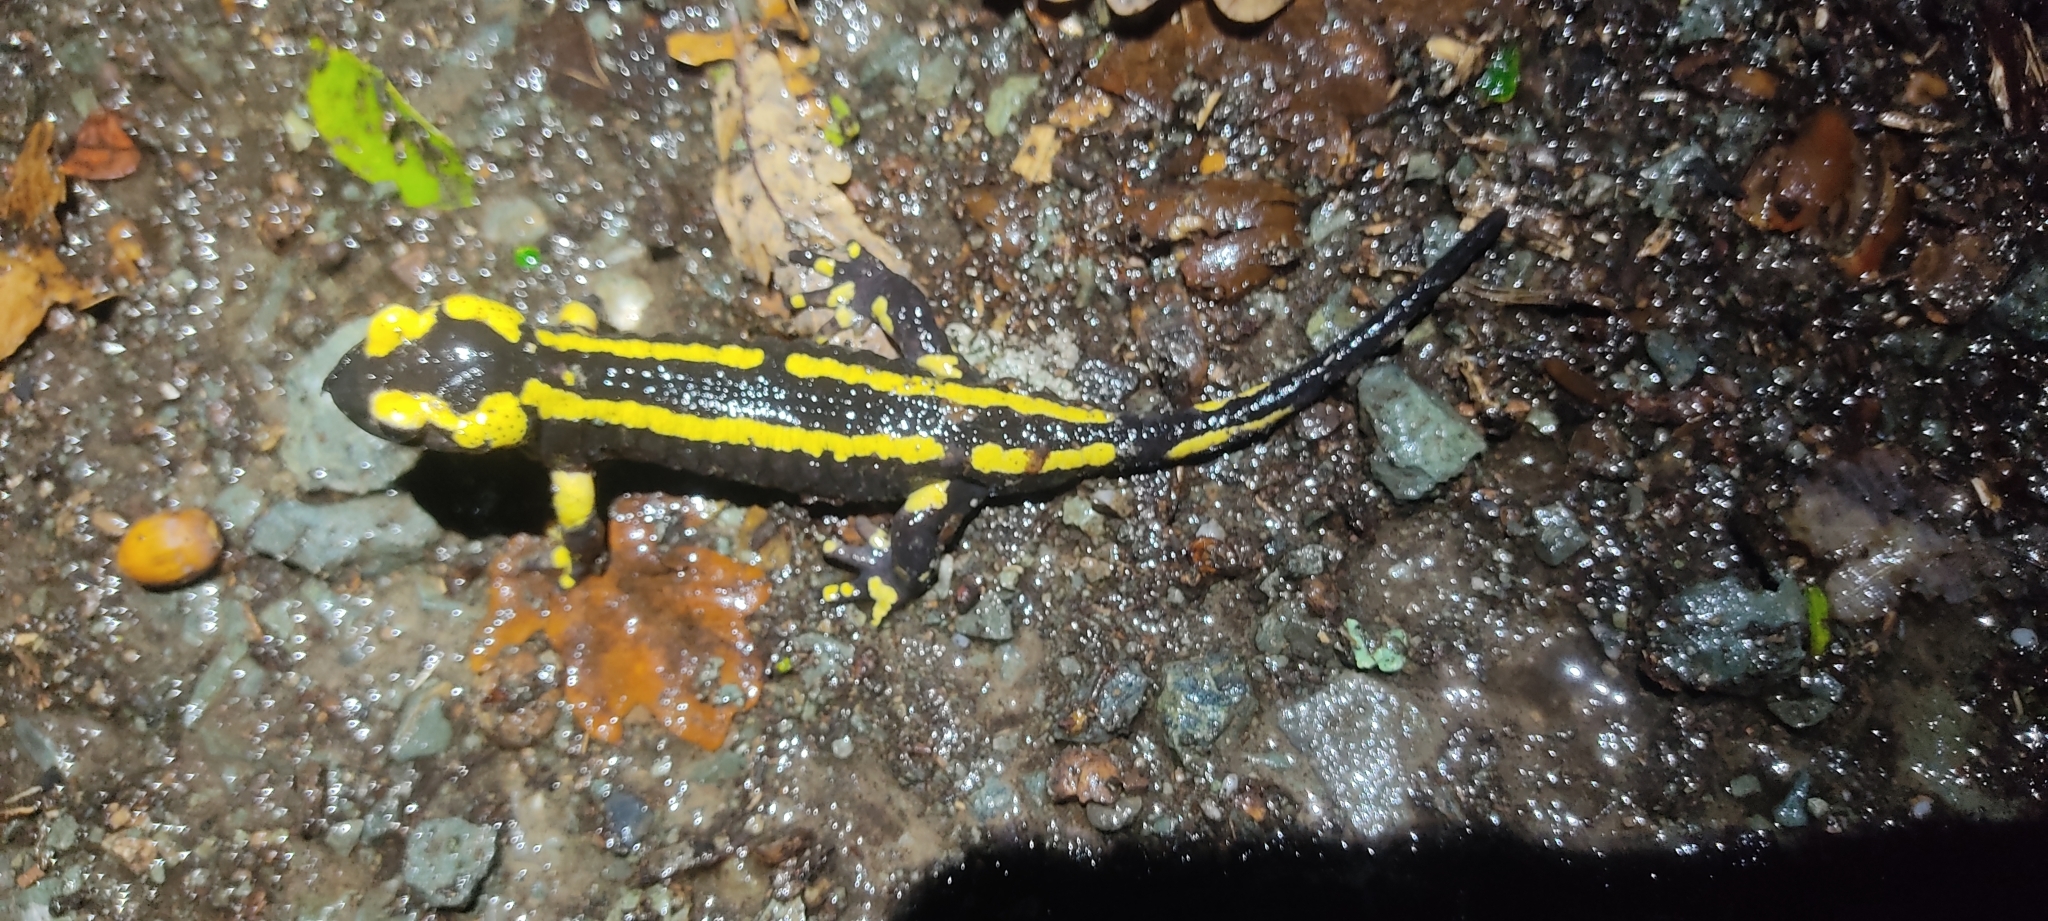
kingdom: Animalia
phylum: Chordata
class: Amphibia
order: Caudata
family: Salamandridae
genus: Salamandra
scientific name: Salamandra salamandra
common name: Fire salamander
